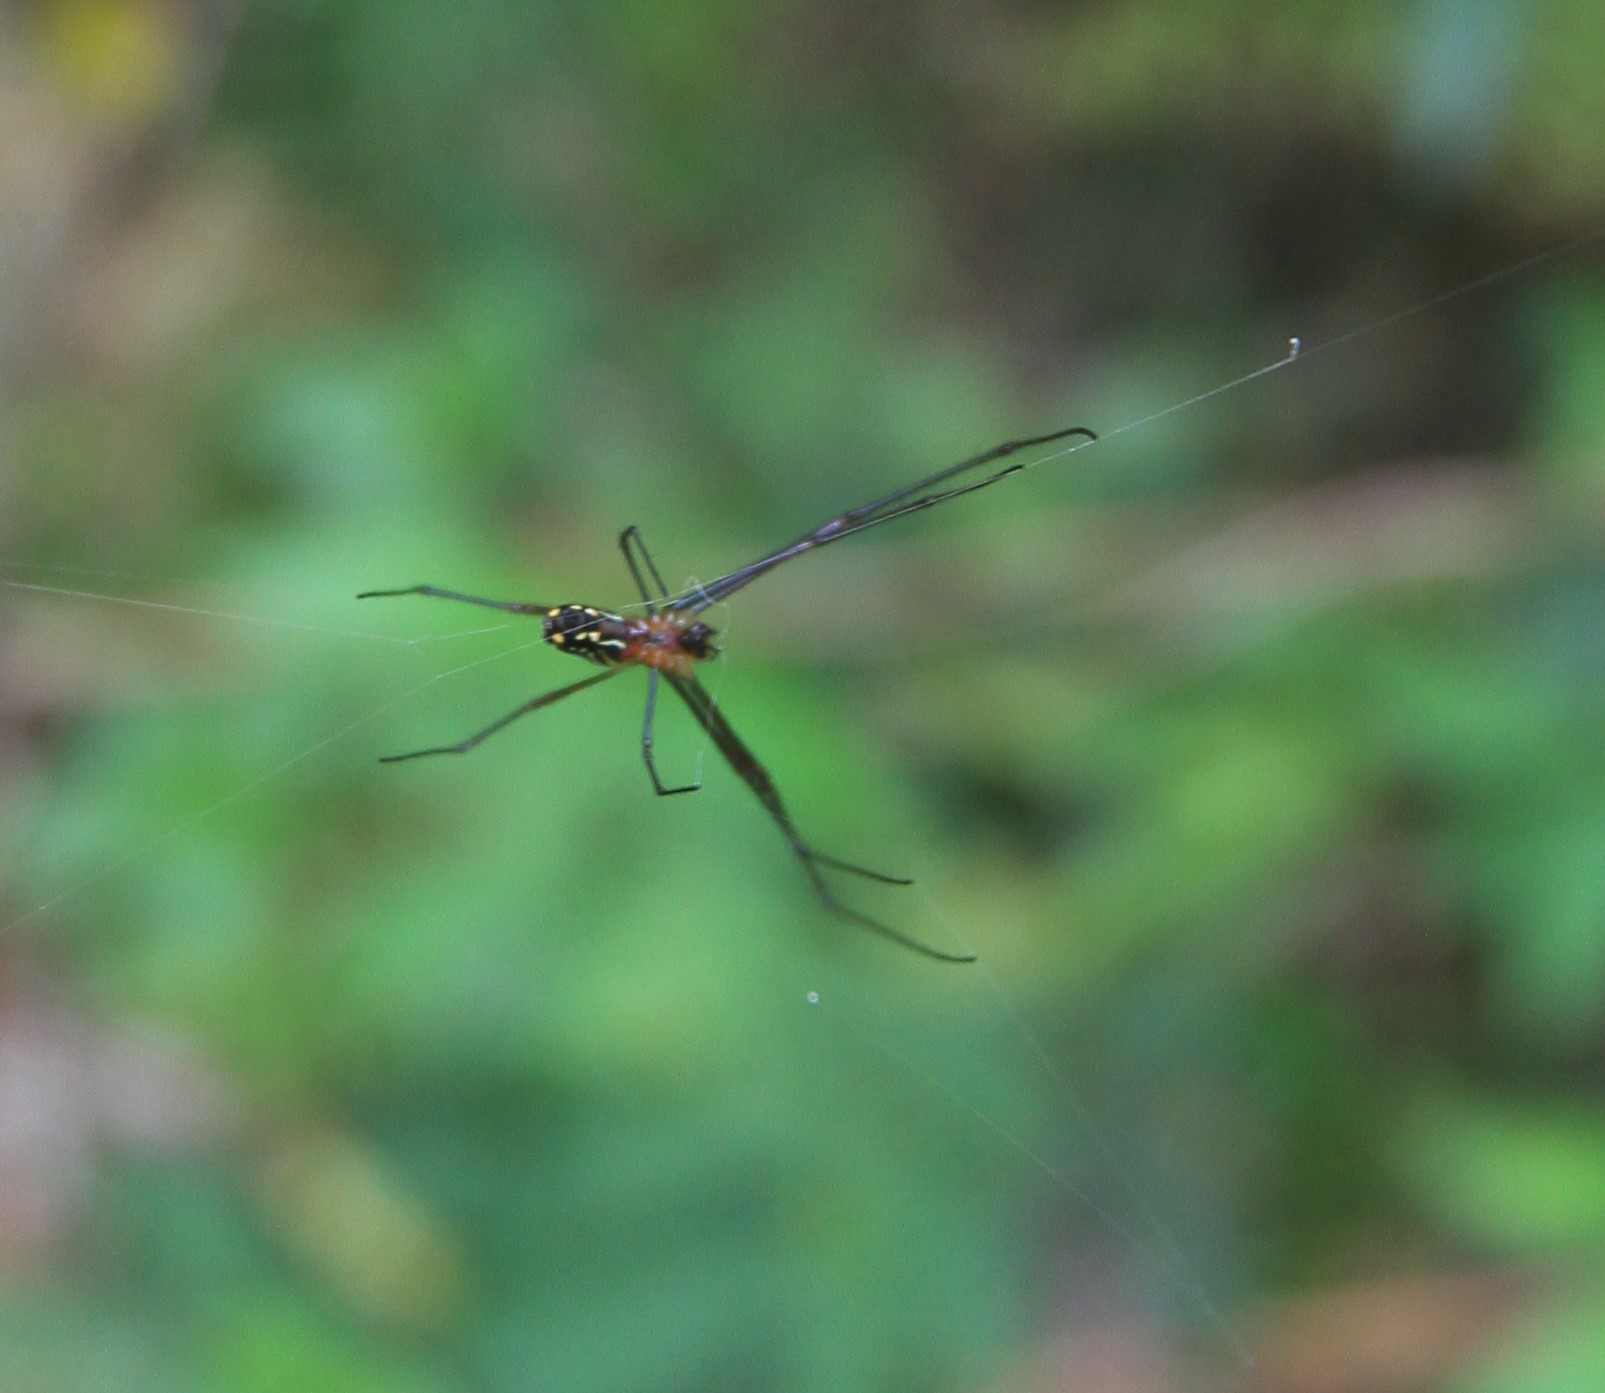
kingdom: Animalia
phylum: Arthropoda
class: Arachnida
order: Araneae
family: Tetragnathidae
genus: Leucauge
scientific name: Leucauge argyra
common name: Longjawed orb weavers
